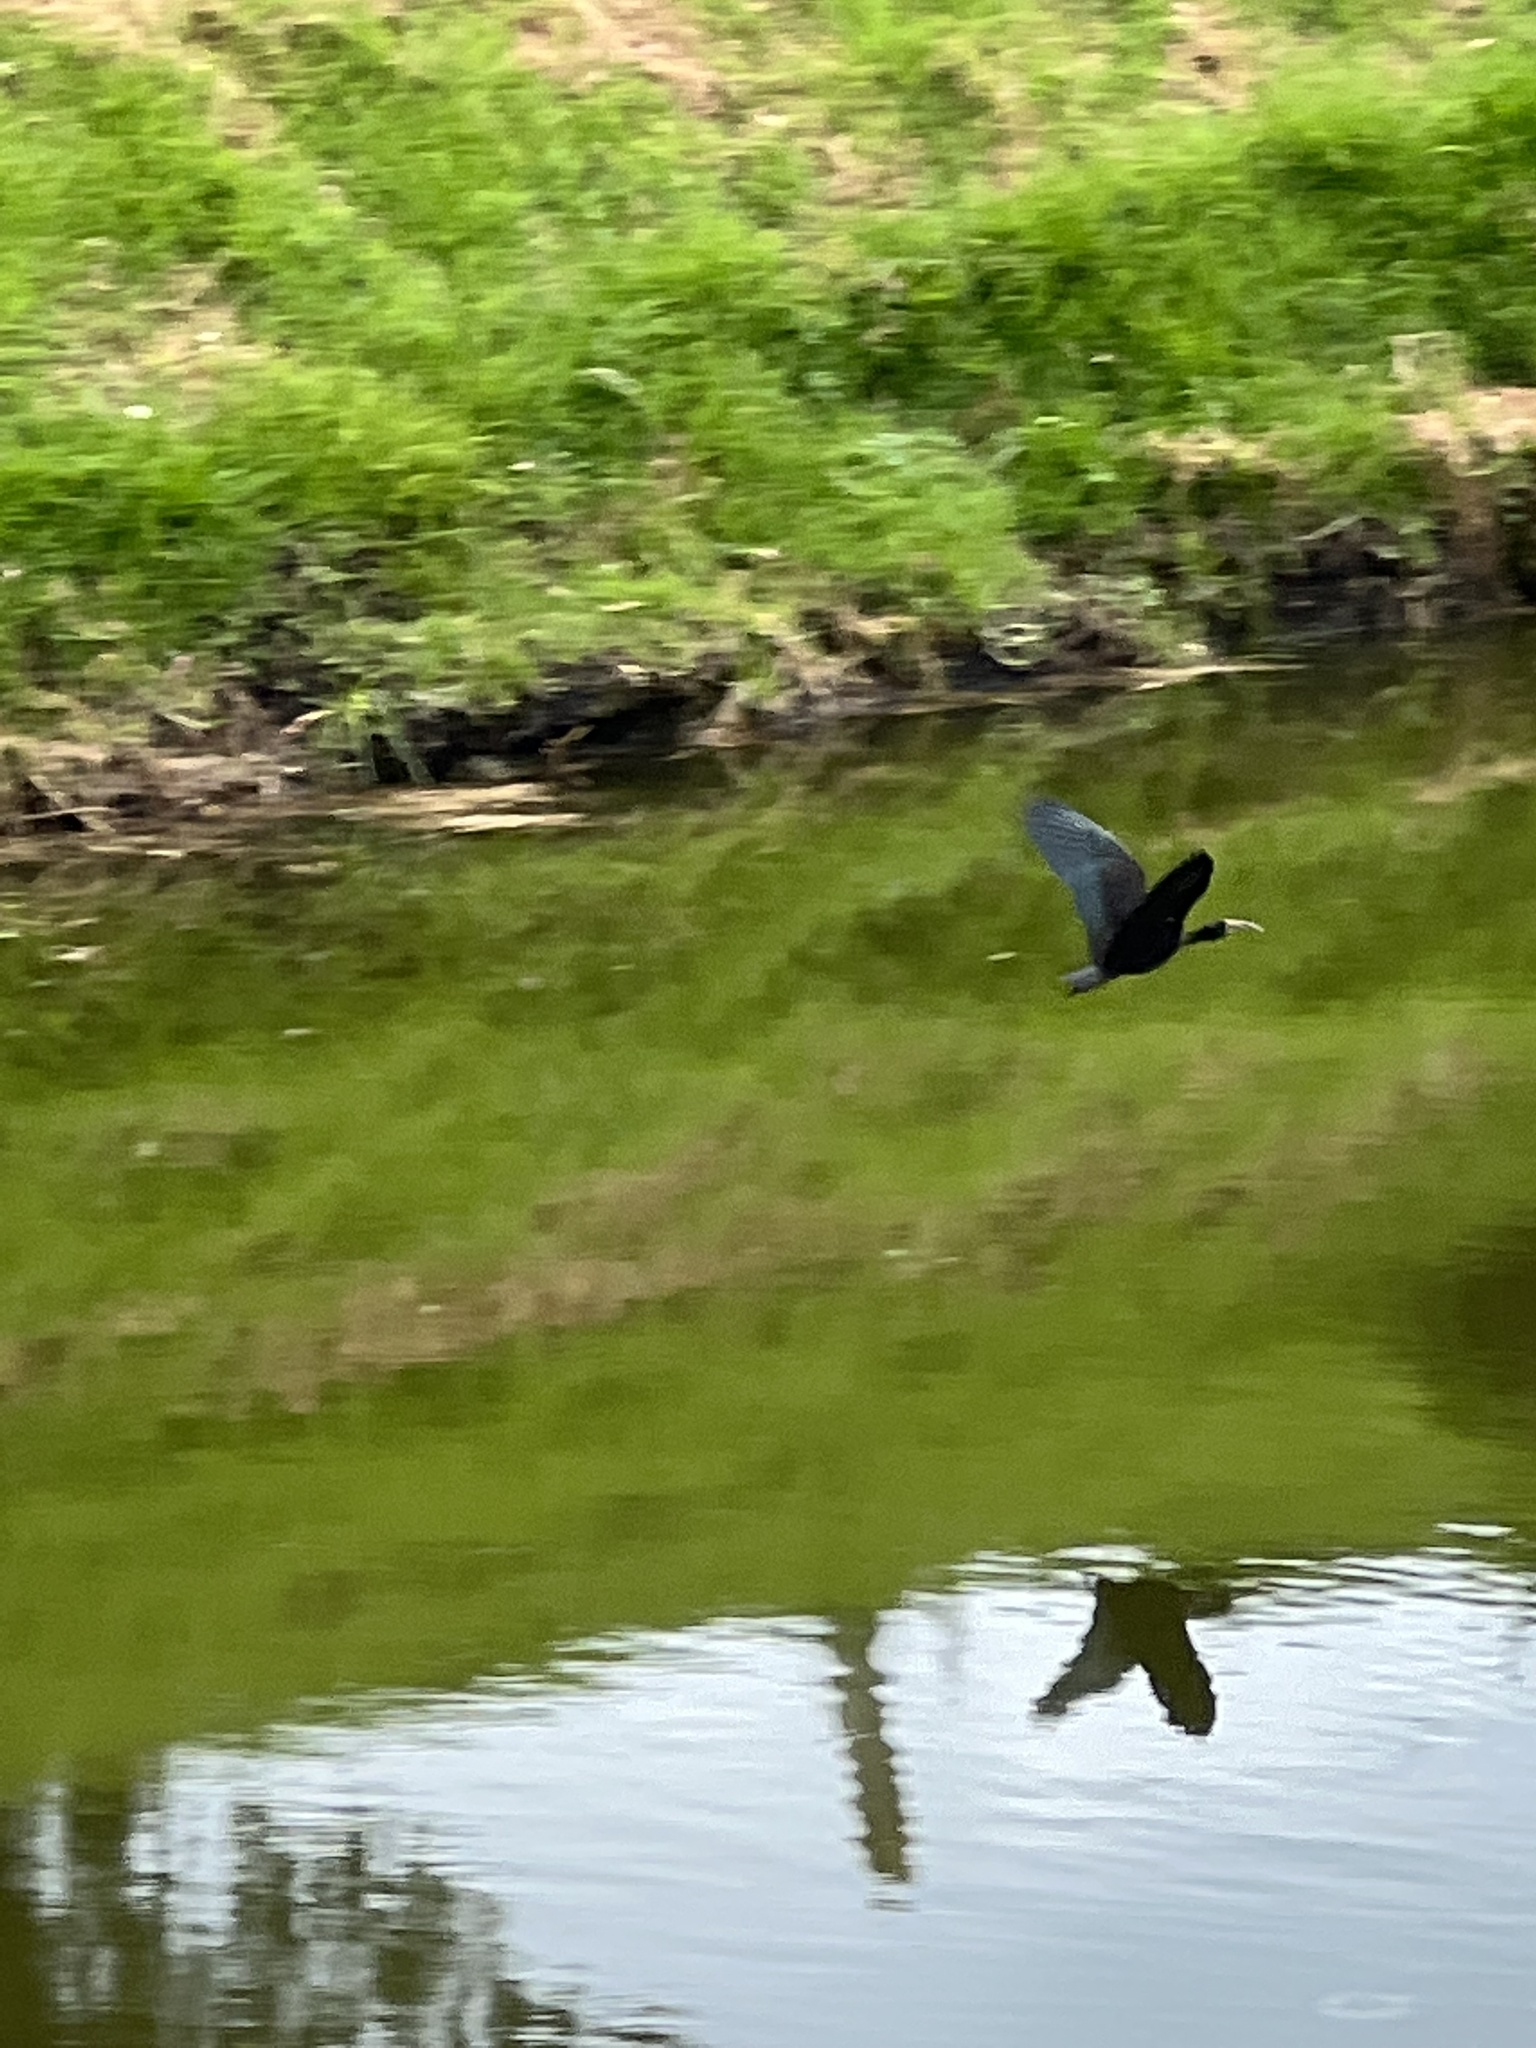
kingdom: Animalia
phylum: Chordata
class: Aves
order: Pelecaniformes
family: Threskiornithidae
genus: Phimosus
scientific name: Phimosus infuscatus
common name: Bare-faced ibis
